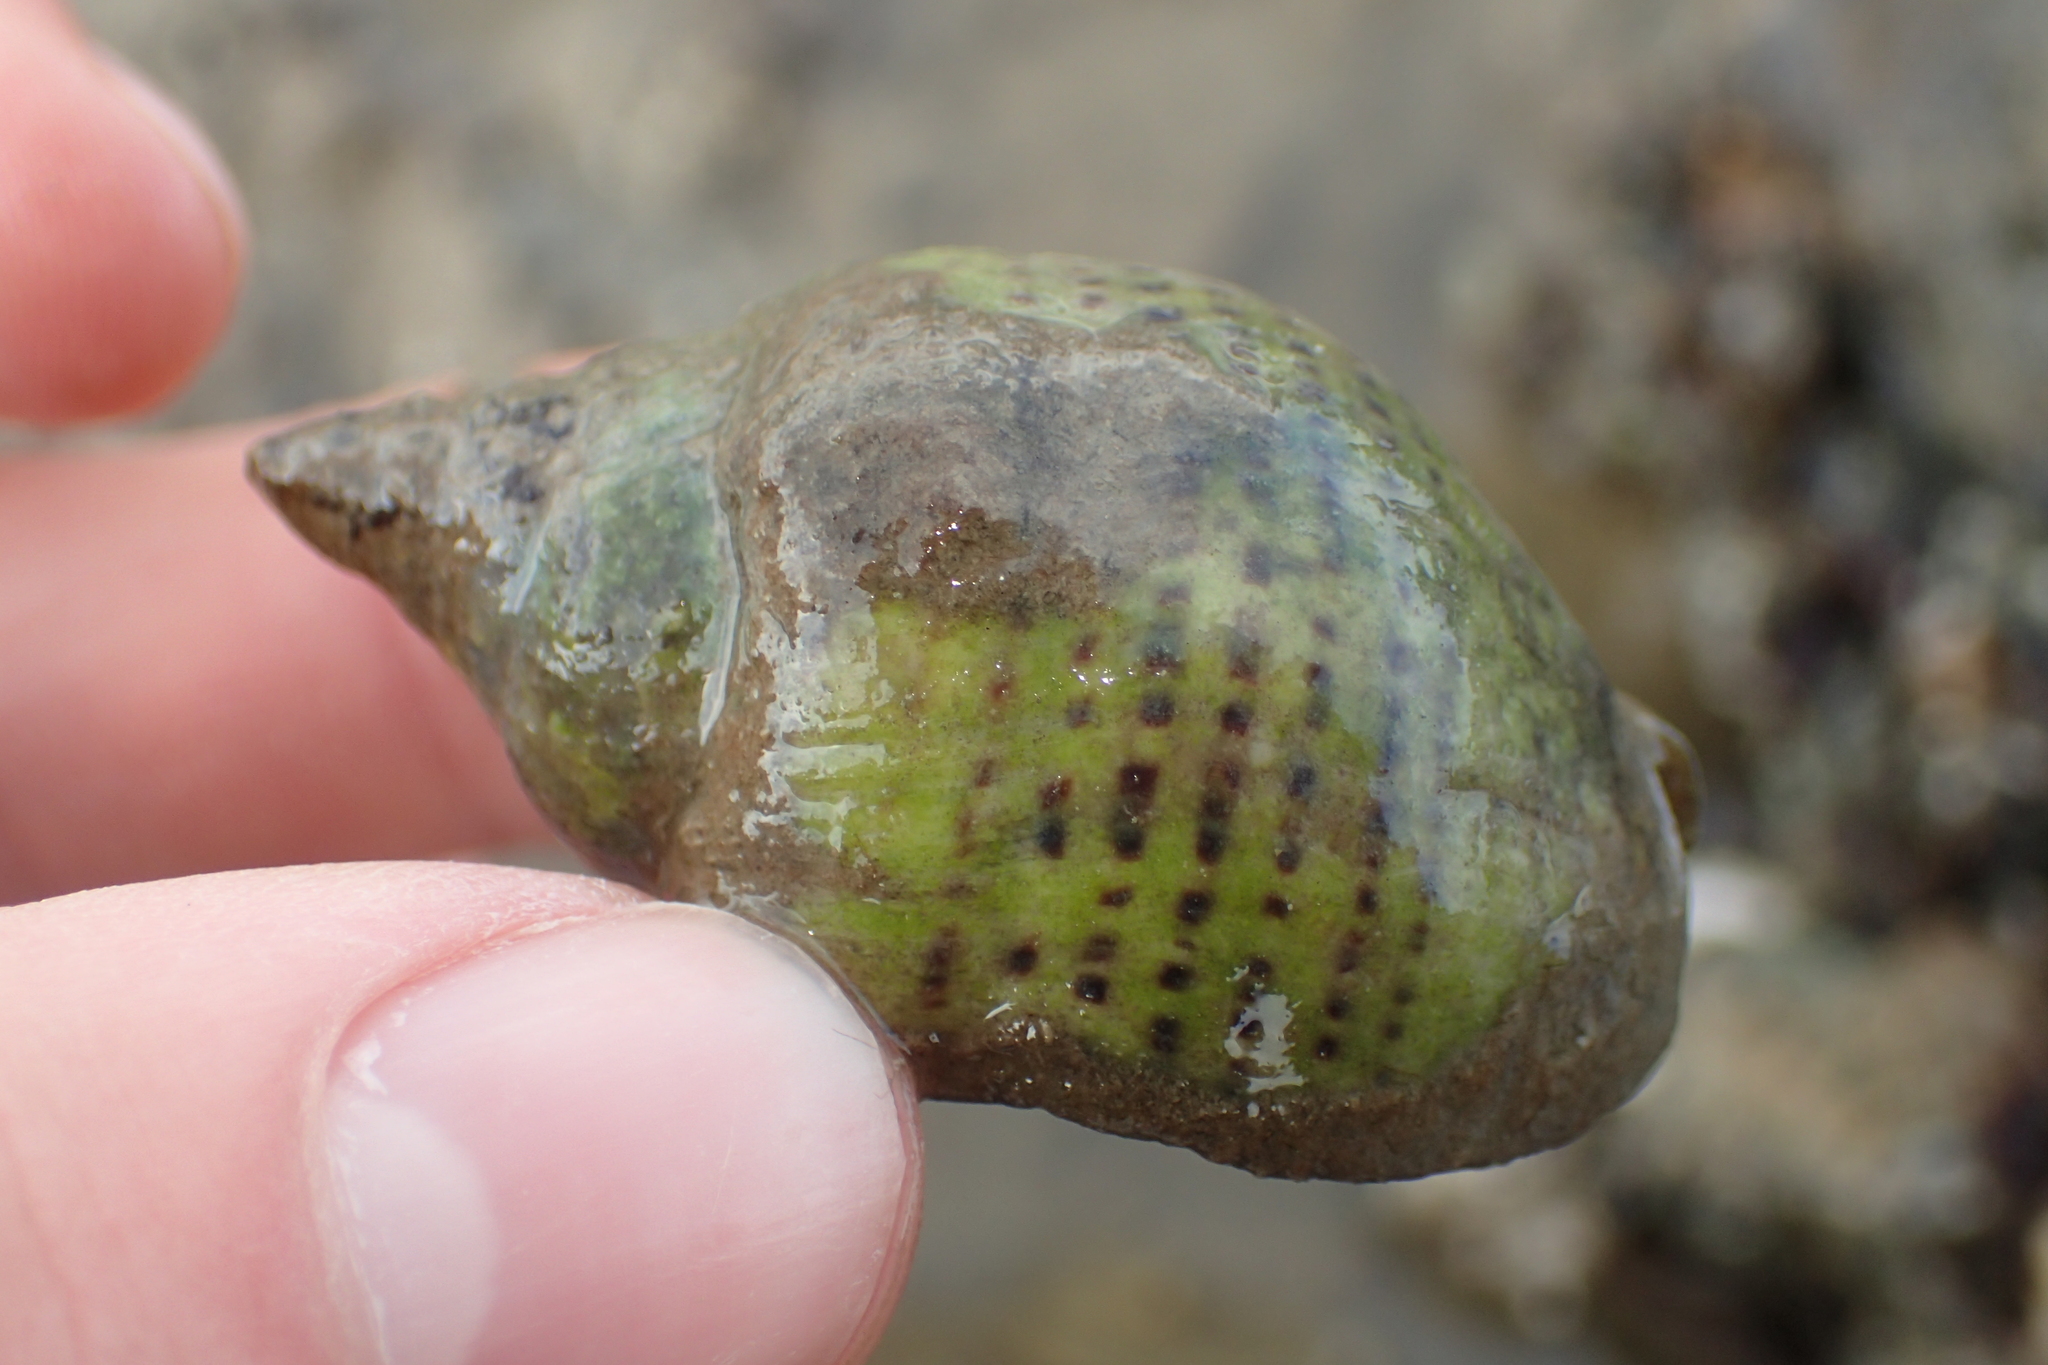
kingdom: Animalia
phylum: Mollusca
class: Gastropoda
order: Neogastropoda
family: Cominellidae
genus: Cominella
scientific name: Cominella adspersa
